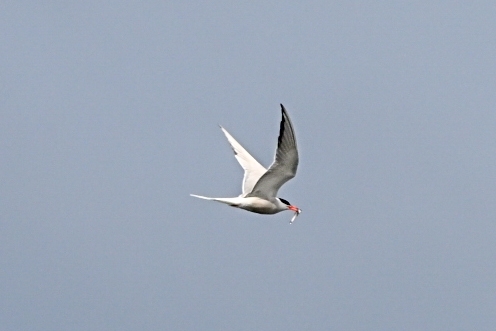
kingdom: Animalia
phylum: Chordata
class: Aves
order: Charadriiformes
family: Laridae
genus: Sterna
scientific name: Sterna hirundo
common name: Common tern
